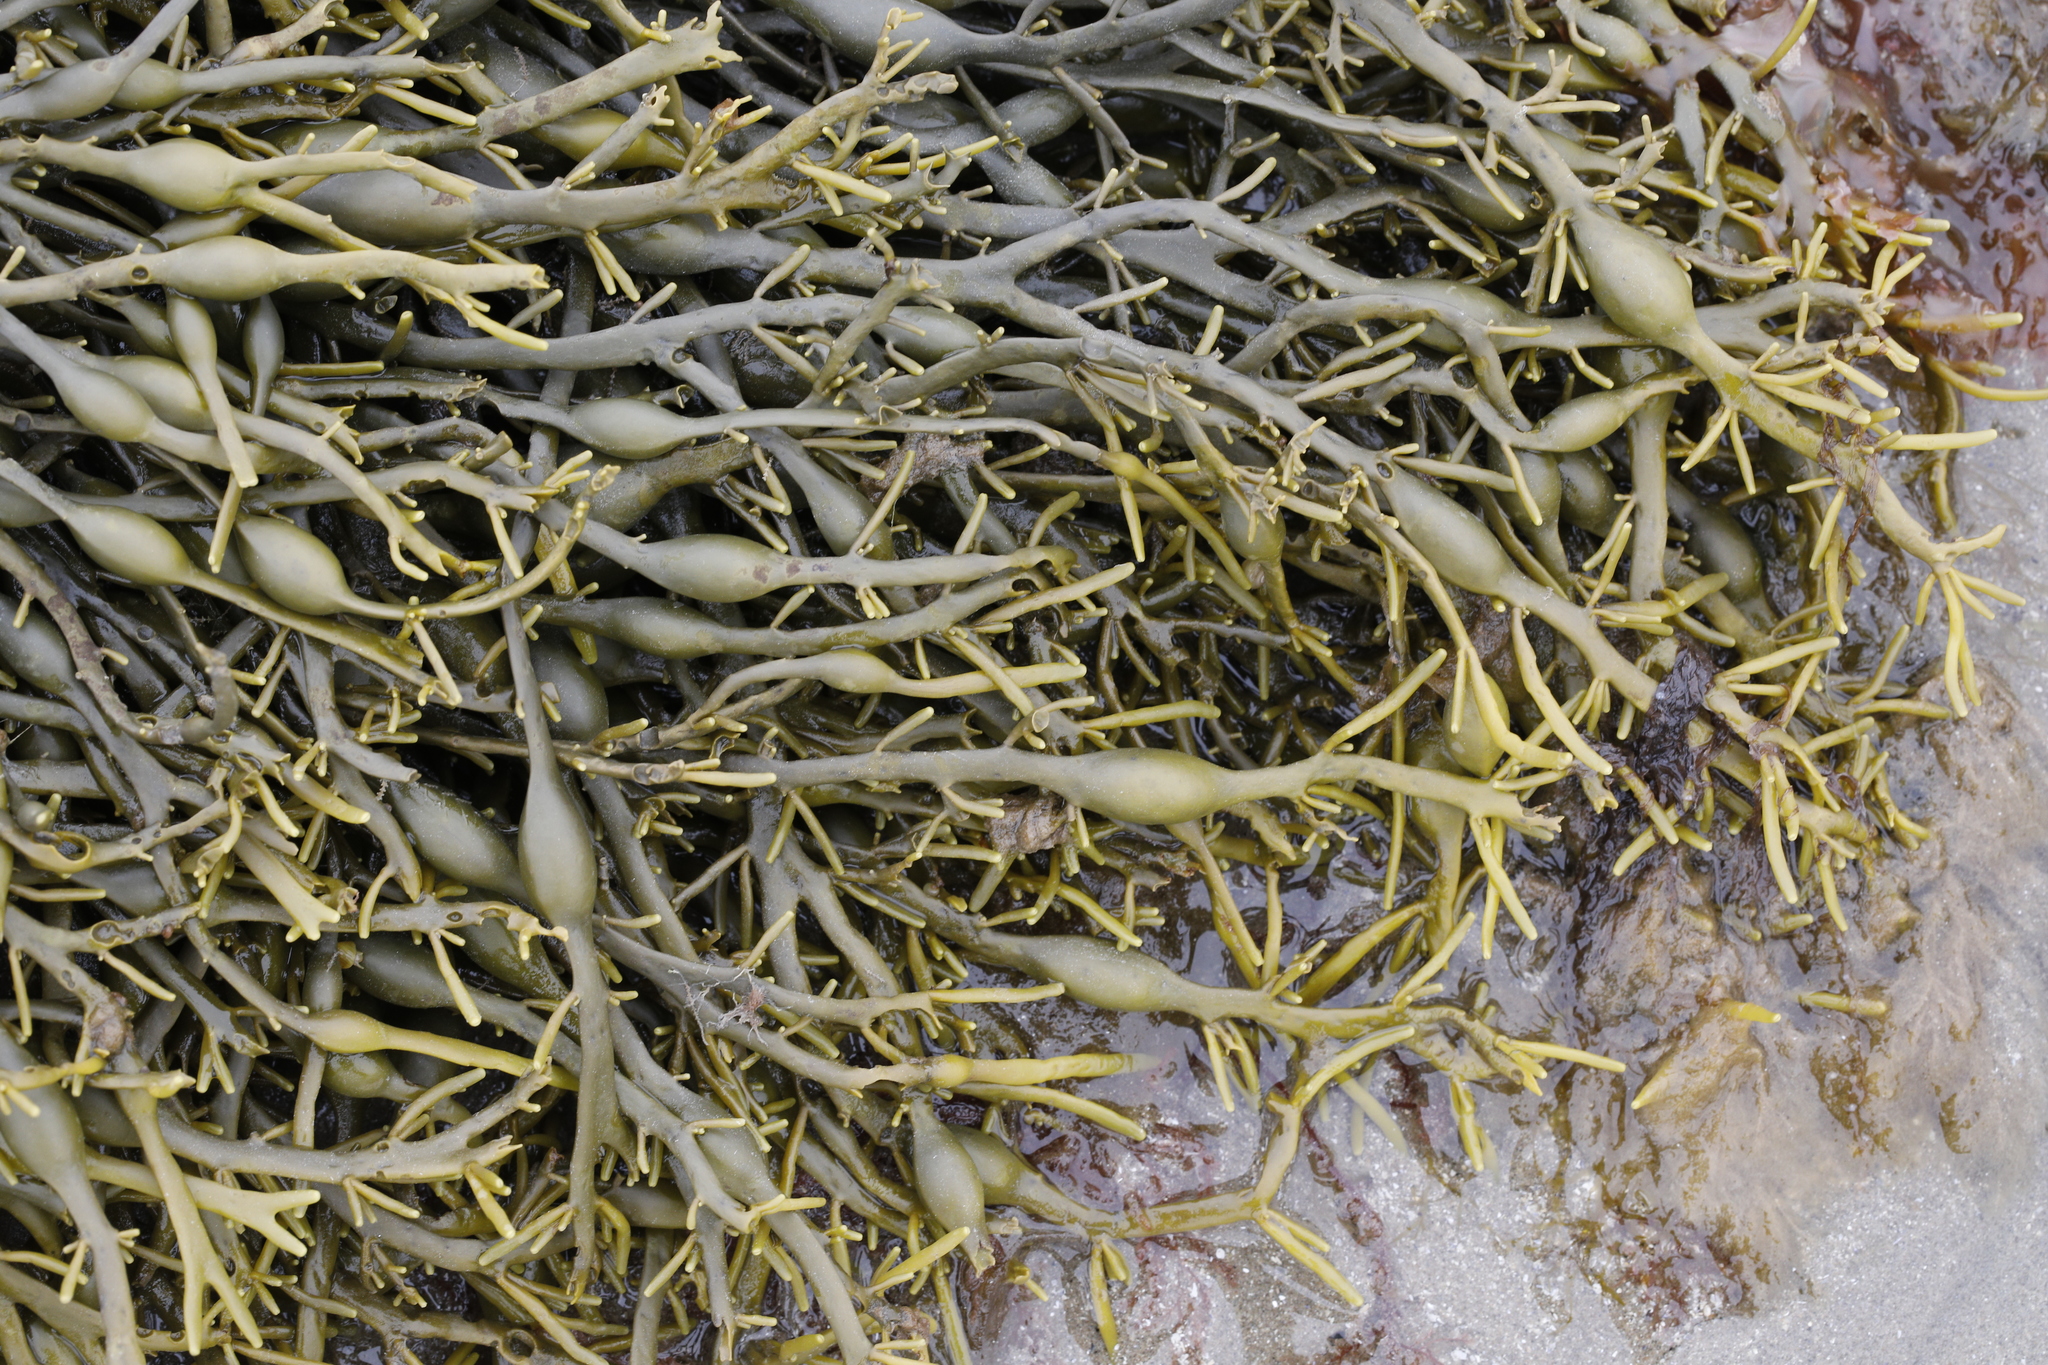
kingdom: Chromista
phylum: Ochrophyta
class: Phaeophyceae
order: Fucales
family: Fucaceae
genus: Ascophyllum
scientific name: Ascophyllum nodosum
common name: Knotted wrack
